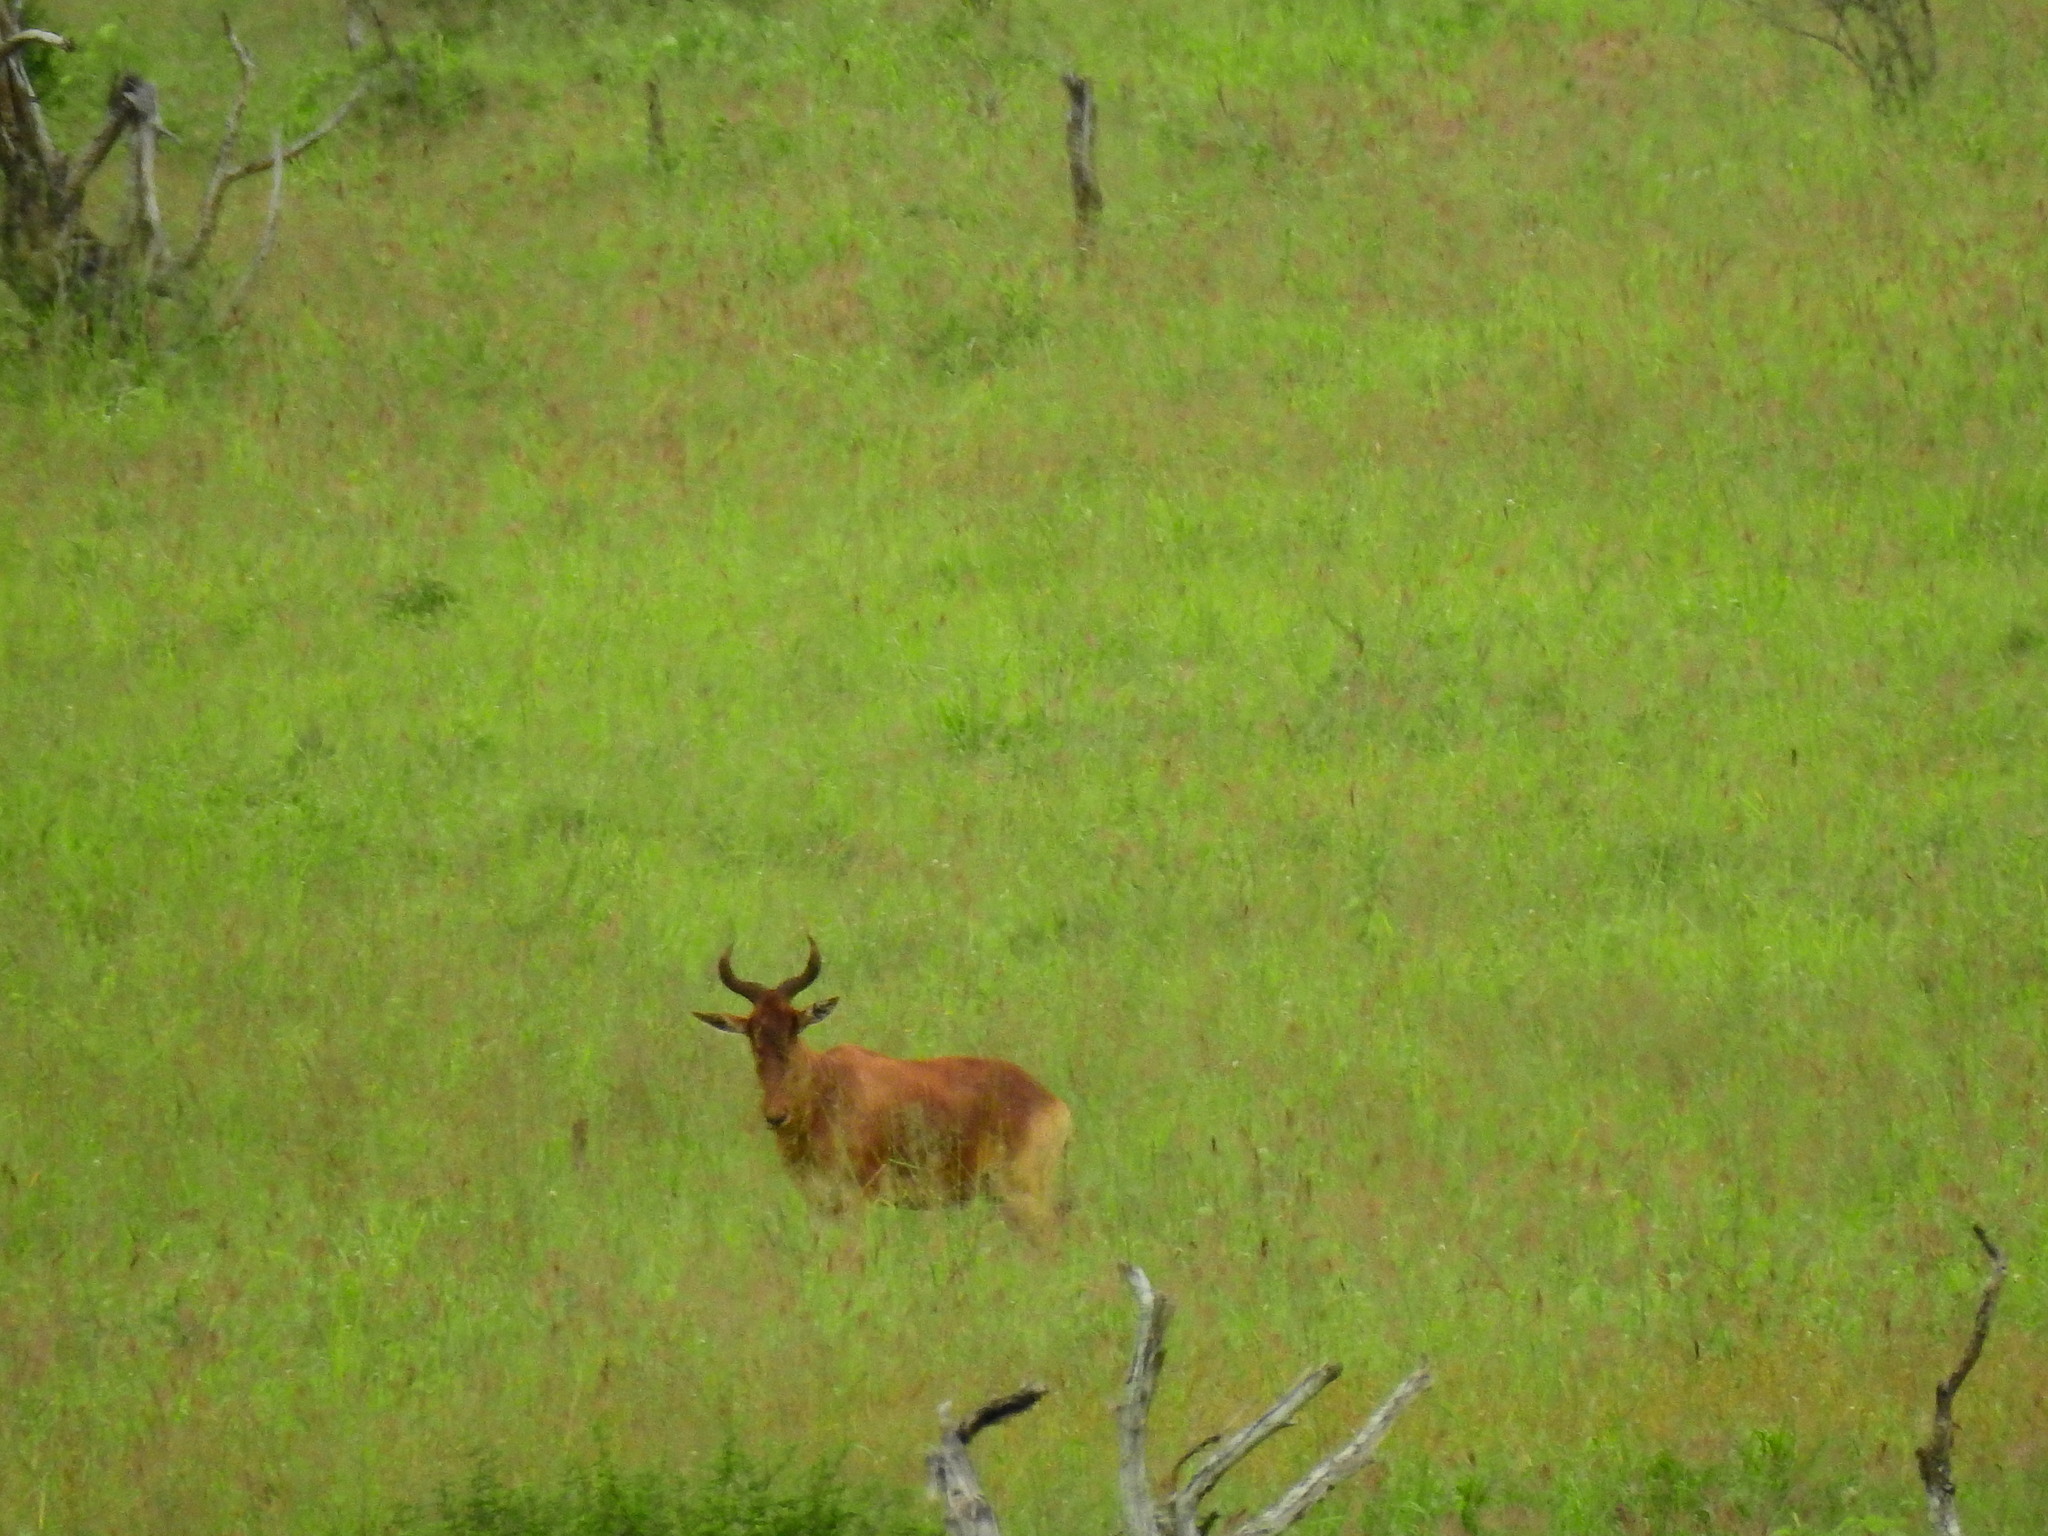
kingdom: Animalia
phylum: Chordata
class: Mammalia
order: Artiodactyla
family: Bovidae
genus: Alcelaphus
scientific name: Alcelaphus buselaphus
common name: Hartebeest
